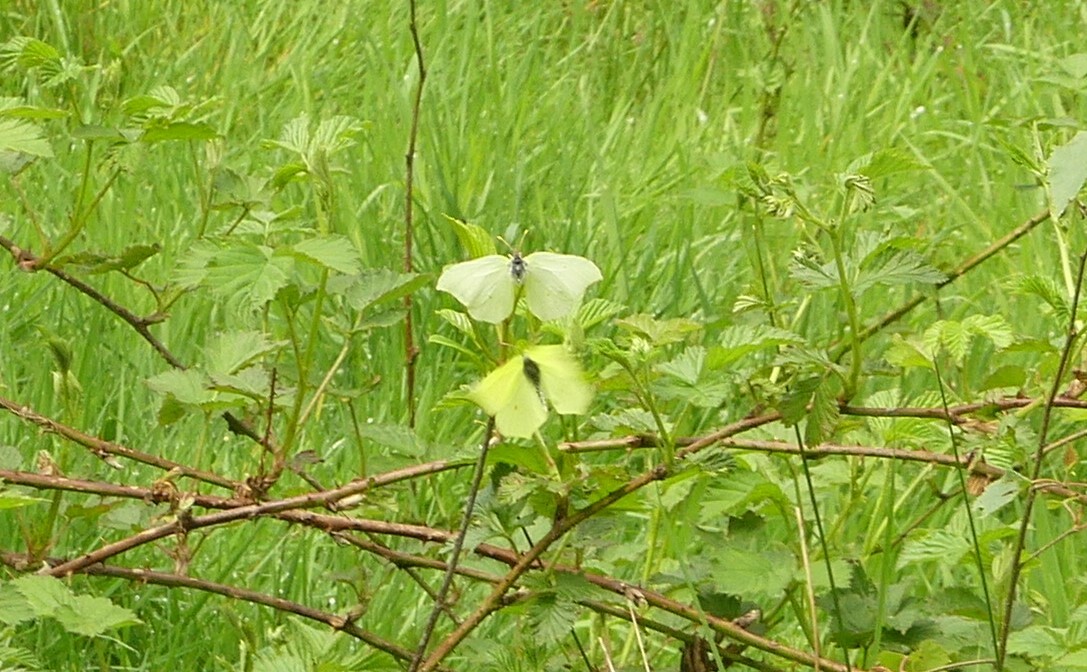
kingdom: Animalia
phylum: Arthropoda
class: Insecta
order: Lepidoptera
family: Pieridae
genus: Gonepteryx
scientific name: Gonepteryx rhamni
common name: Brimstone
